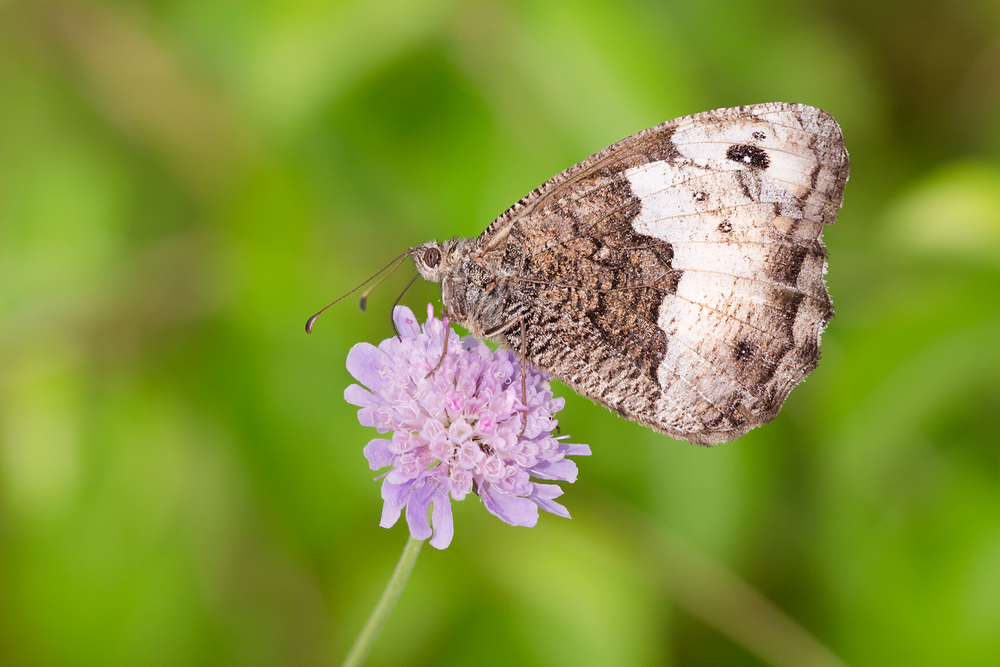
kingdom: Animalia
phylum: Arthropoda
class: Insecta
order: Lepidoptera
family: Nymphalidae
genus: Hipparchia
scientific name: Hipparchia hermione
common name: Rock grayling
